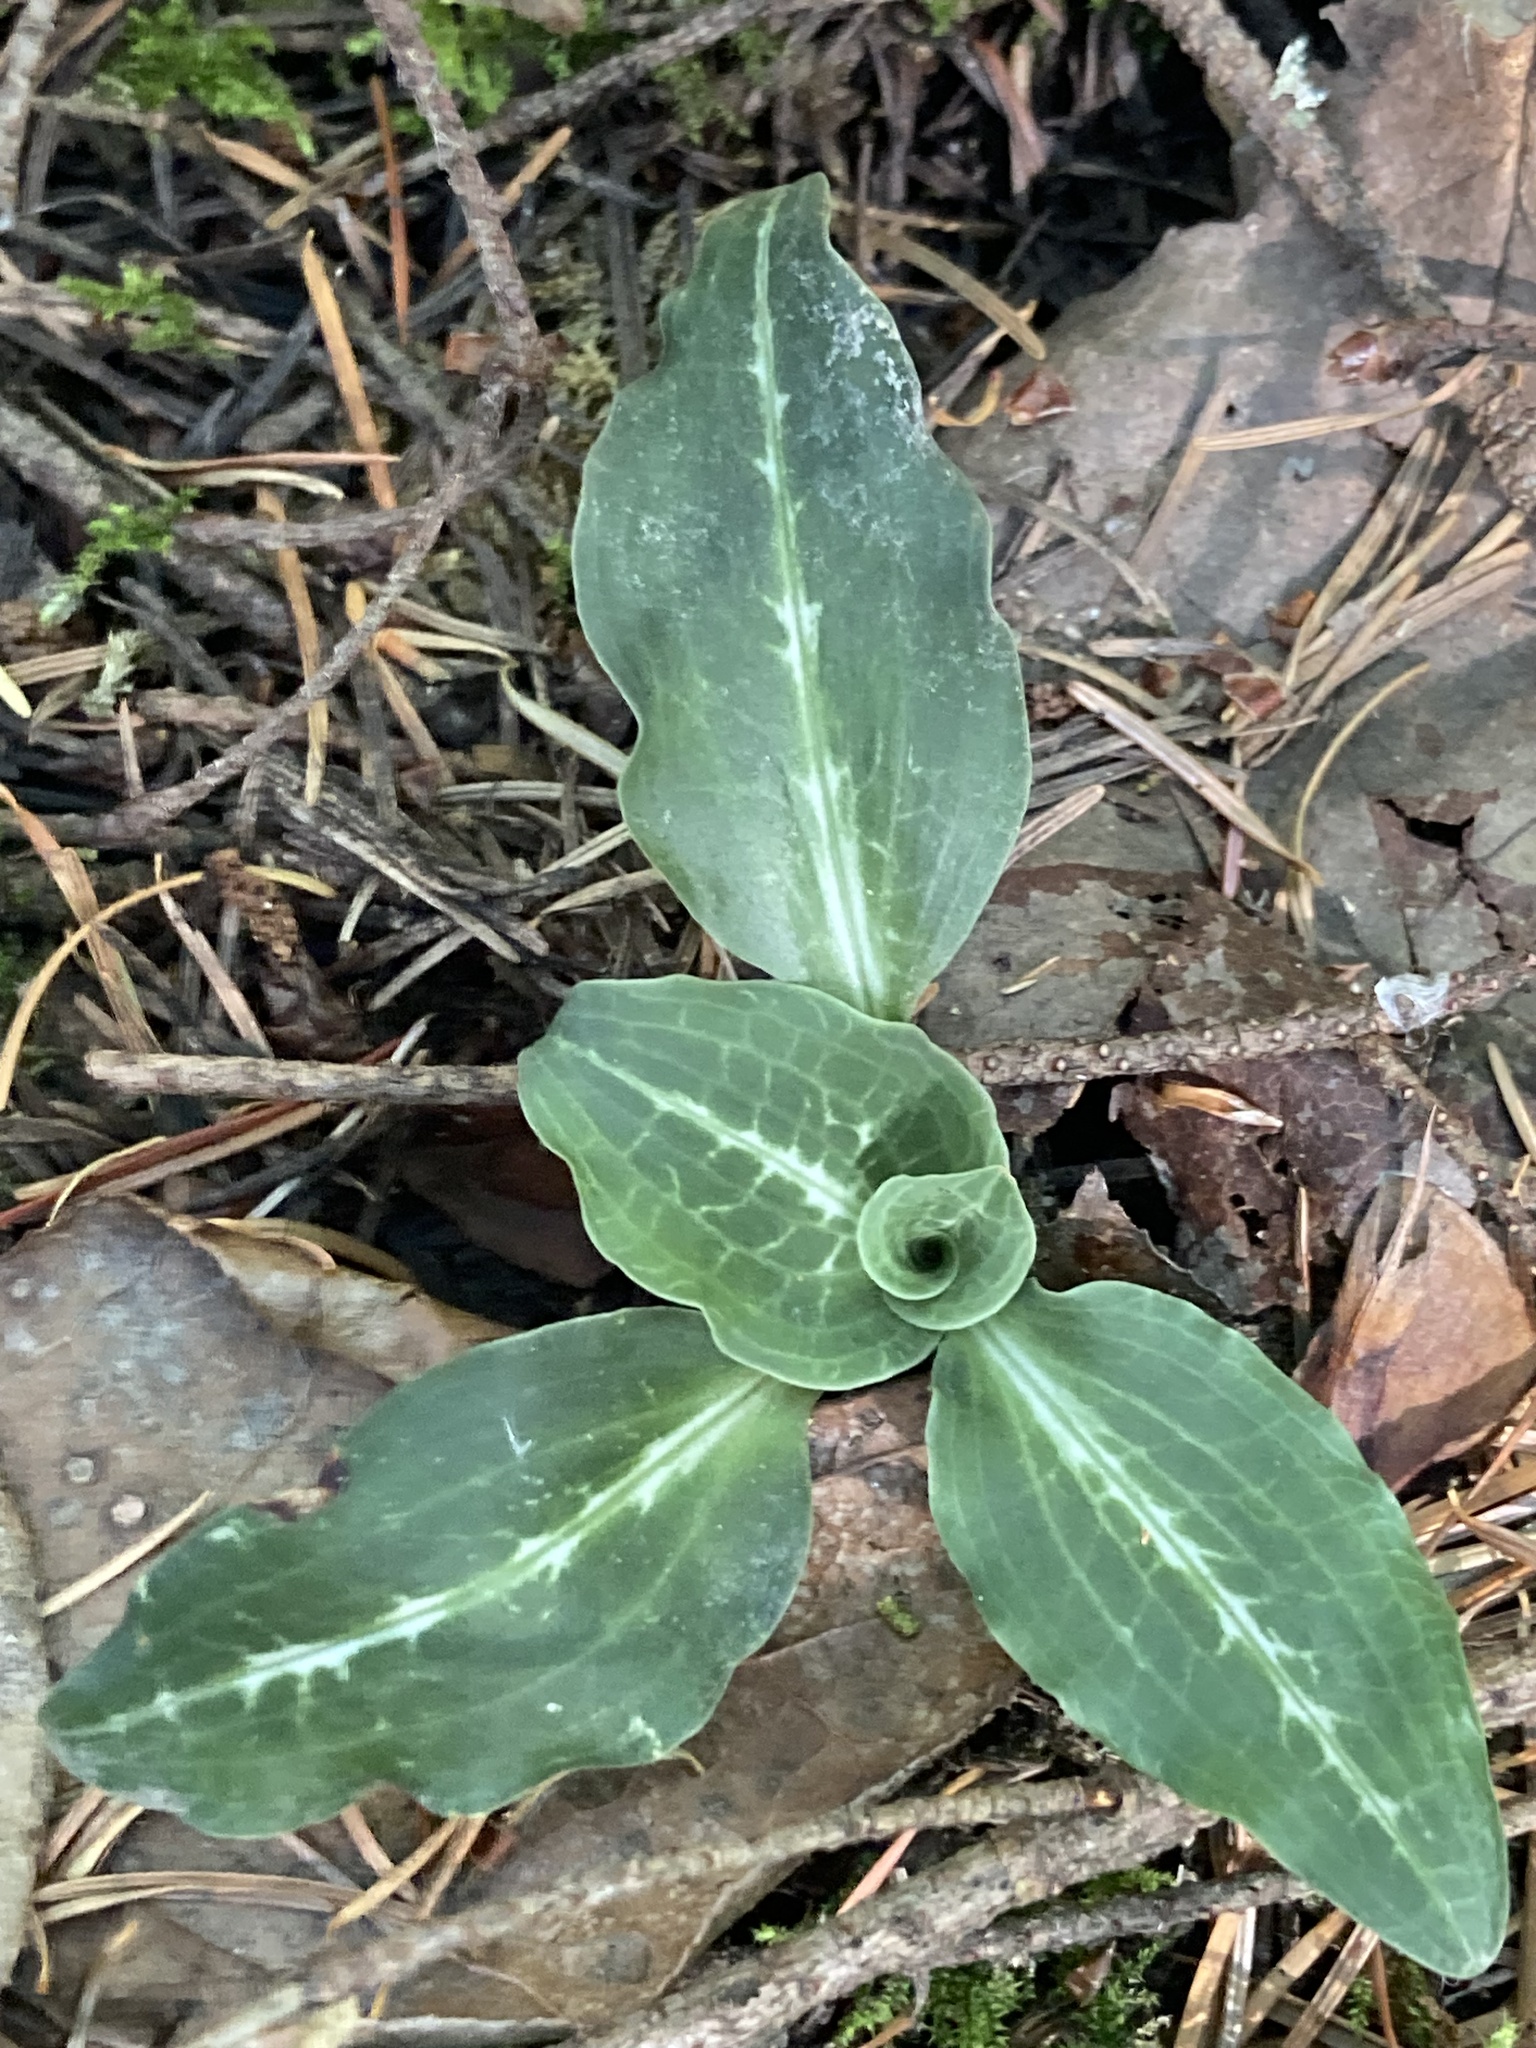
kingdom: Plantae
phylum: Tracheophyta
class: Liliopsida
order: Asparagales
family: Orchidaceae
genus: Goodyera
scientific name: Goodyera oblongifolia
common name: Giant rattlesnake-plantain
